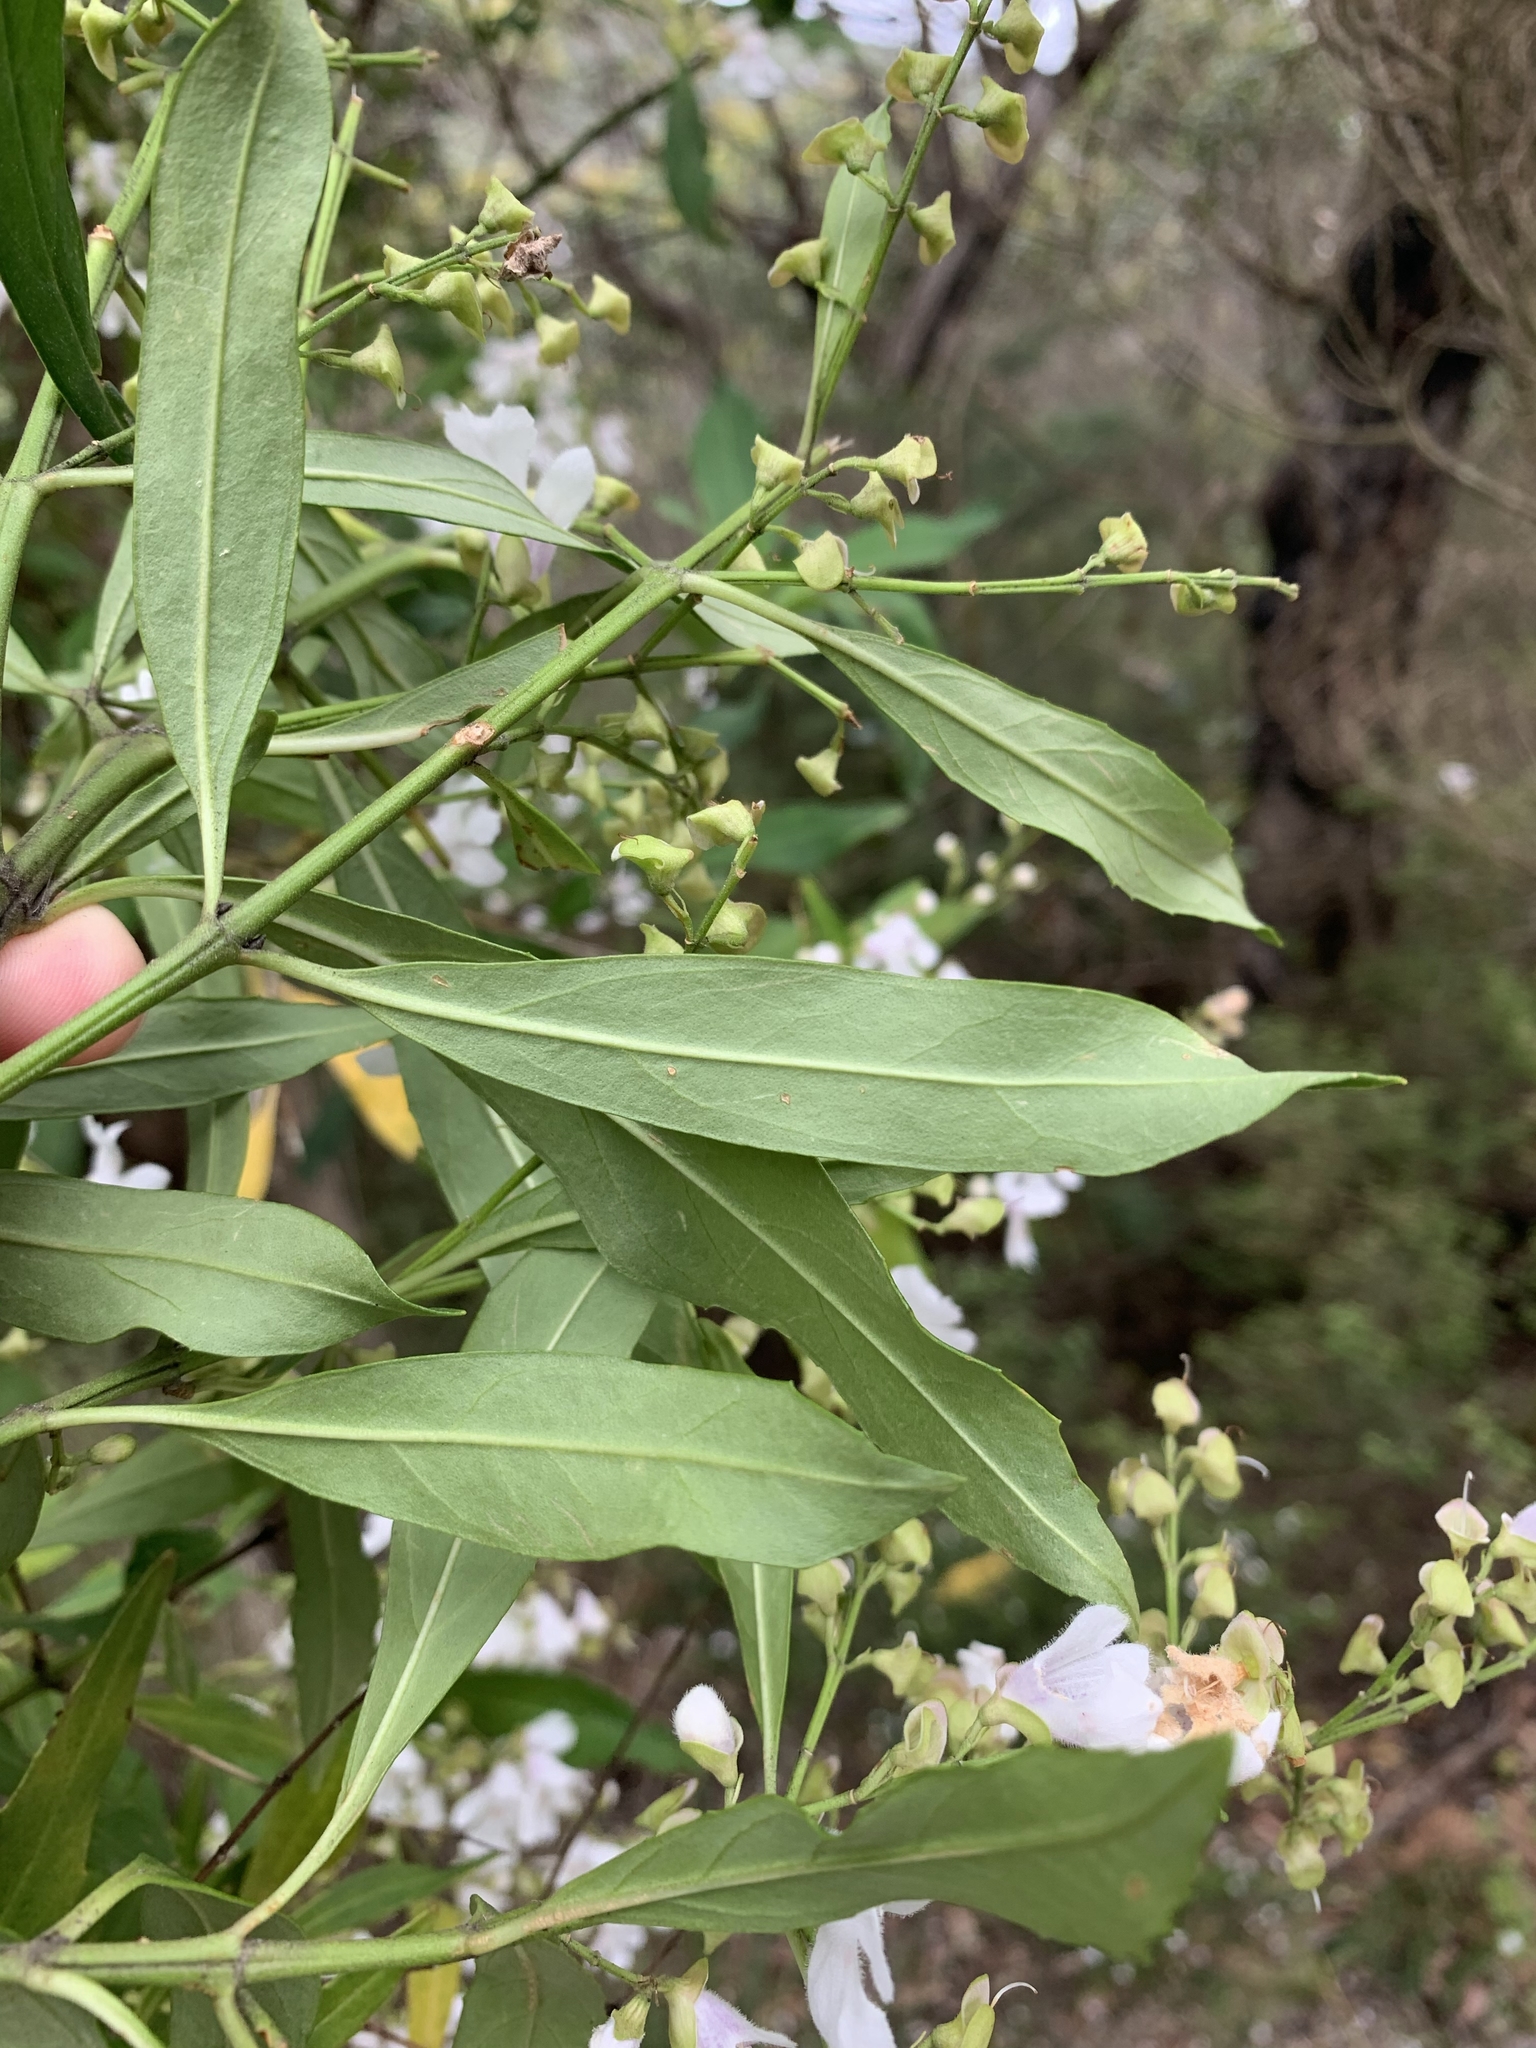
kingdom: Plantae
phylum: Tracheophyta
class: Magnoliopsida
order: Lamiales
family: Lamiaceae
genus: Prostanthera
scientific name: Prostanthera lasianthos
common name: Mountain-lilac
